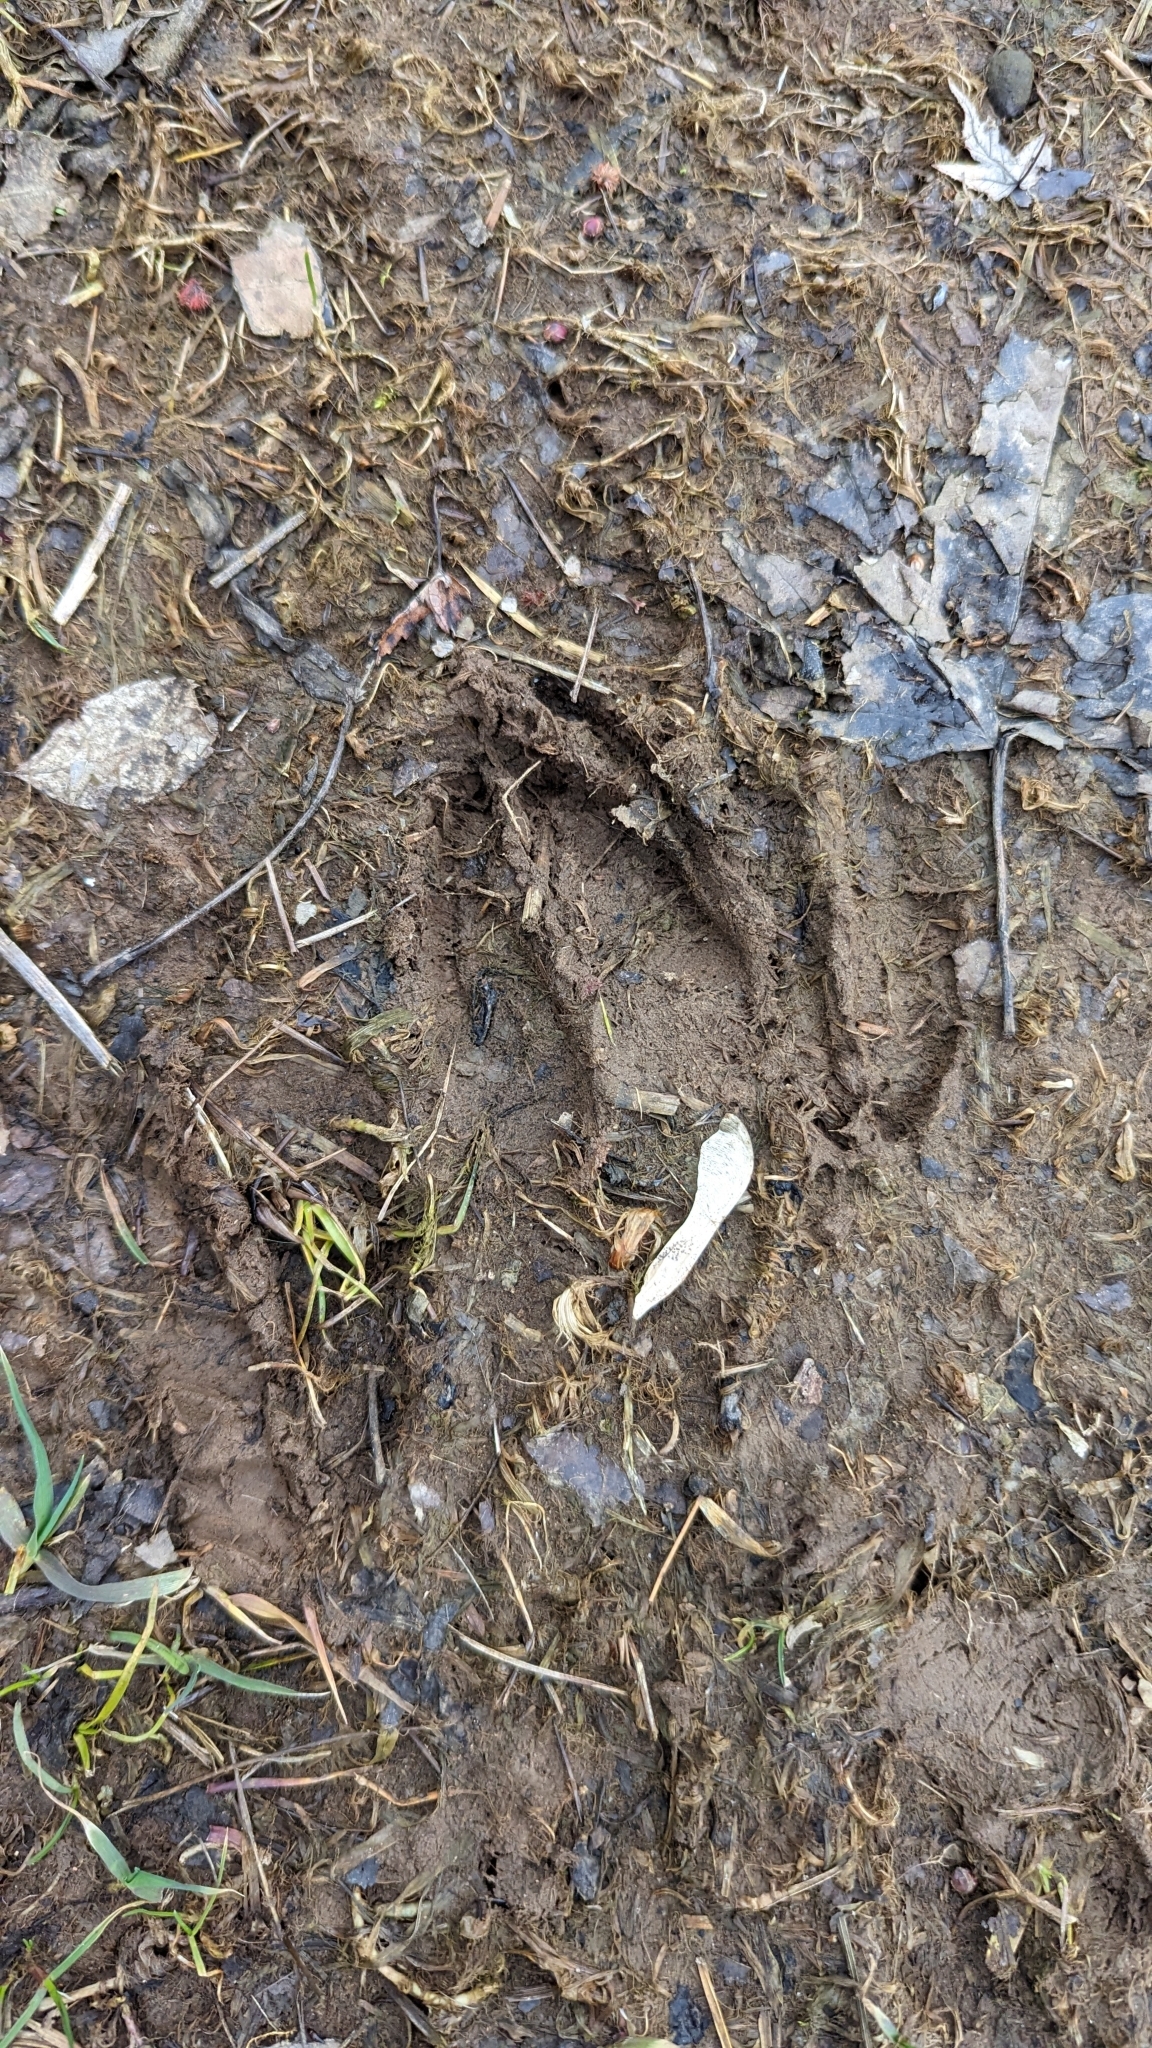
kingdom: Animalia
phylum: Chordata
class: Mammalia
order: Artiodactyla
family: Cervidae
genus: Odocoileus
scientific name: Odocoileus virginianus
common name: White-tailed deer
